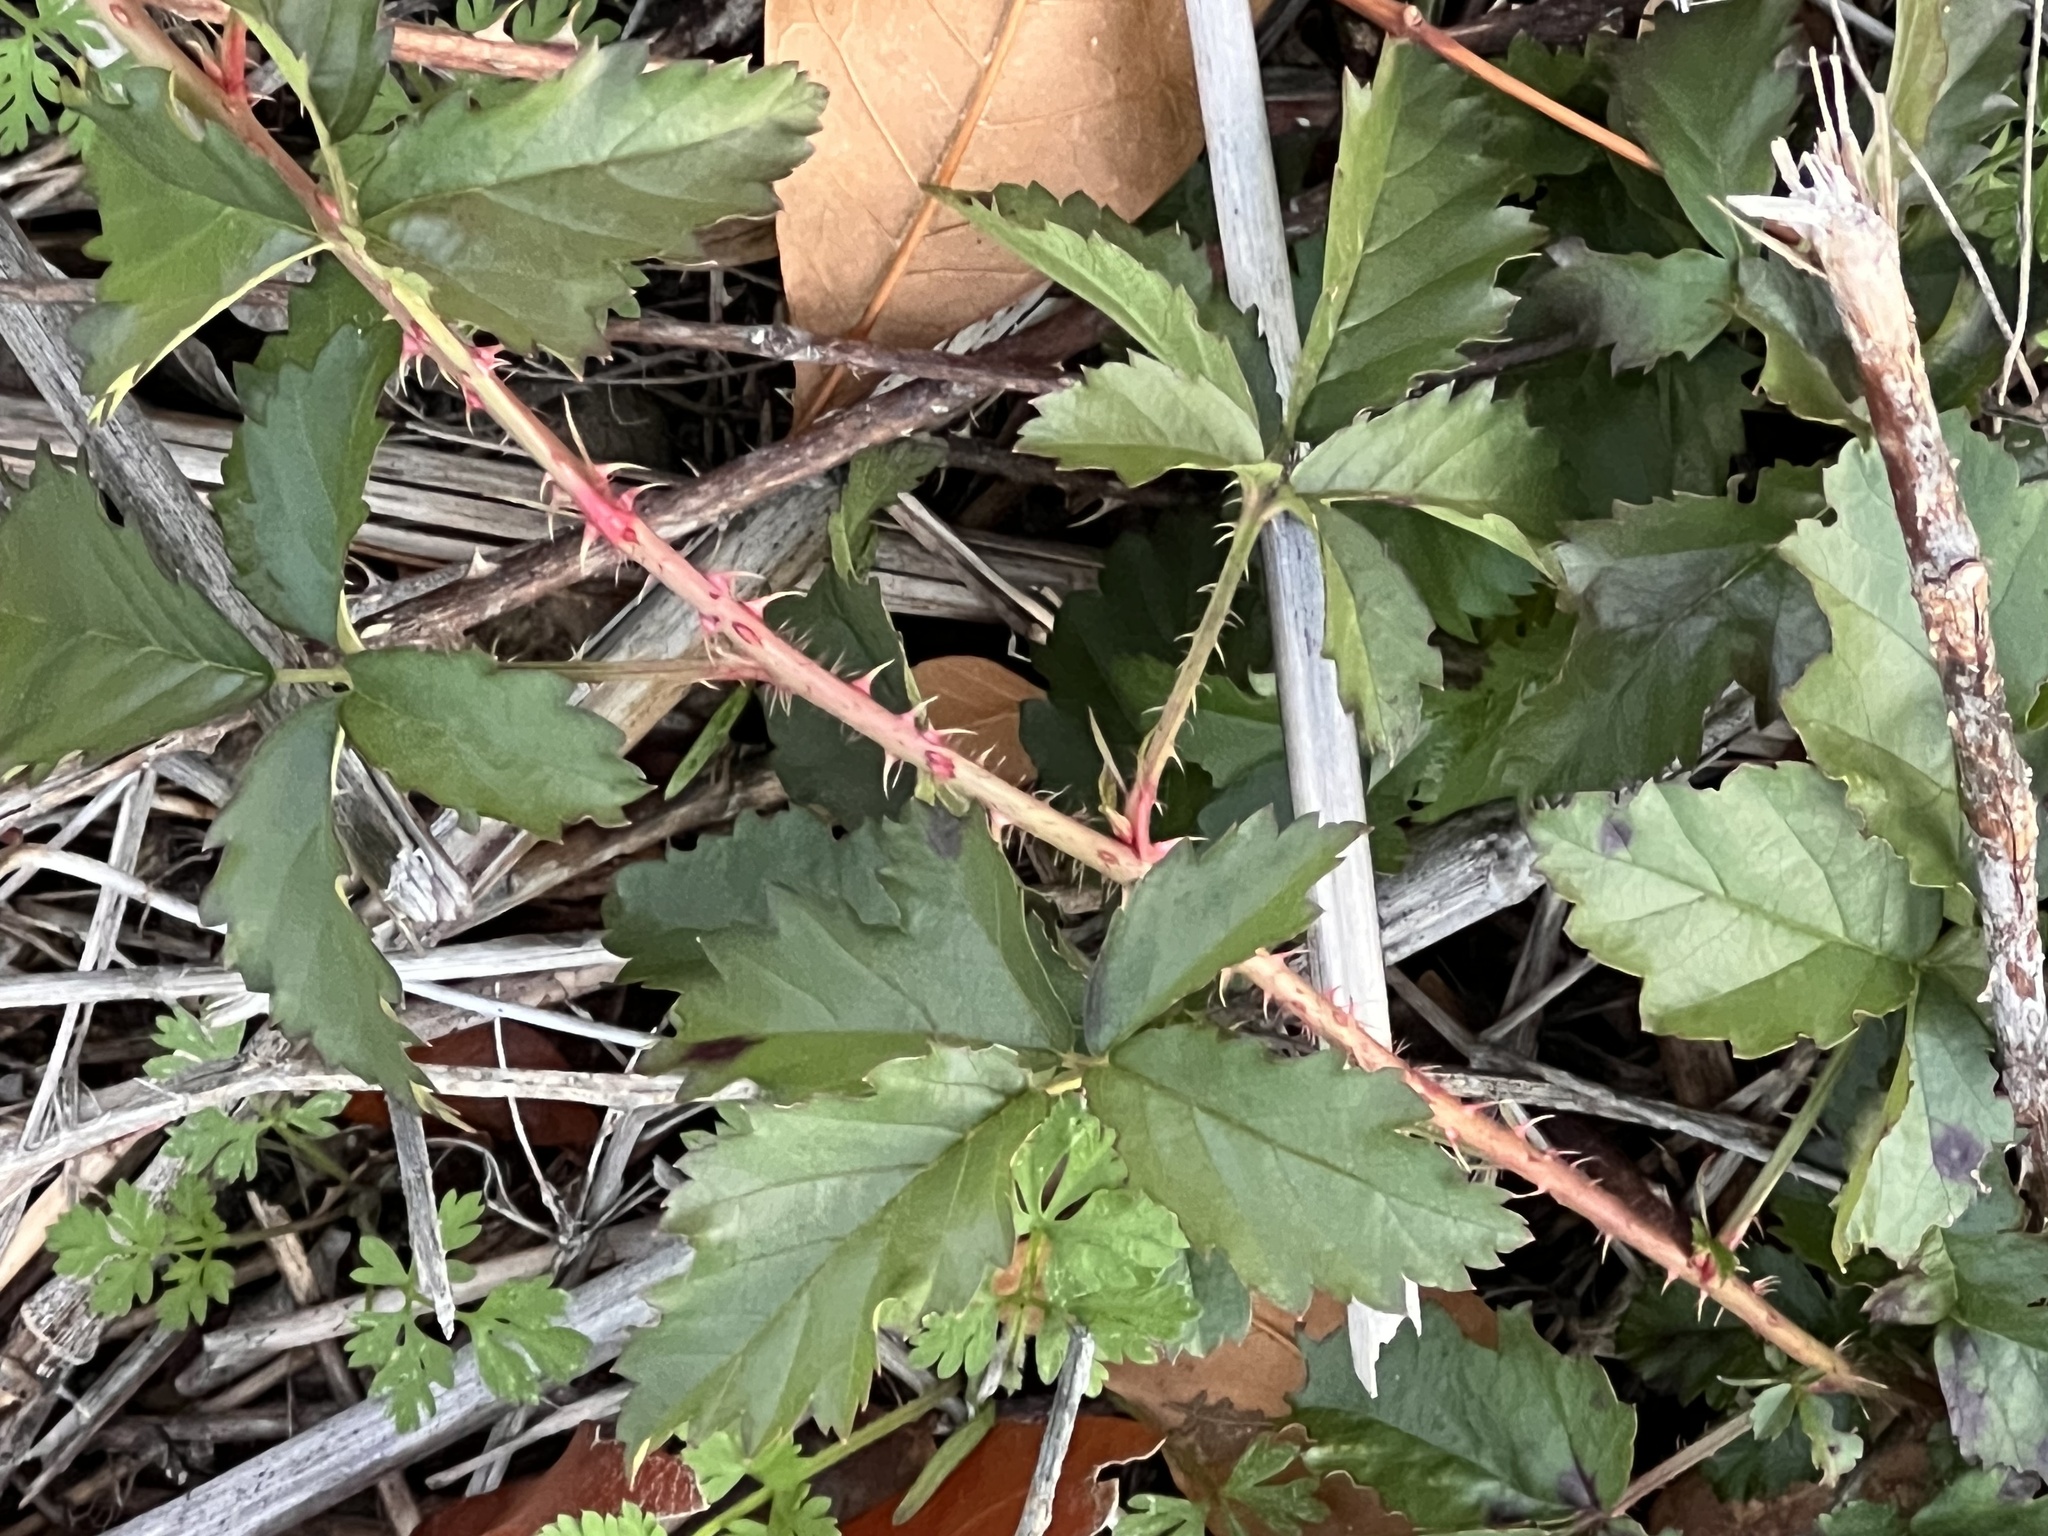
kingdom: Plantae
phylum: Tracheophyta
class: Magnoliopsida
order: Rosales
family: Rosaceae
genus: Rubus
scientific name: Rubus trivialis
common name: Southern dewberry
